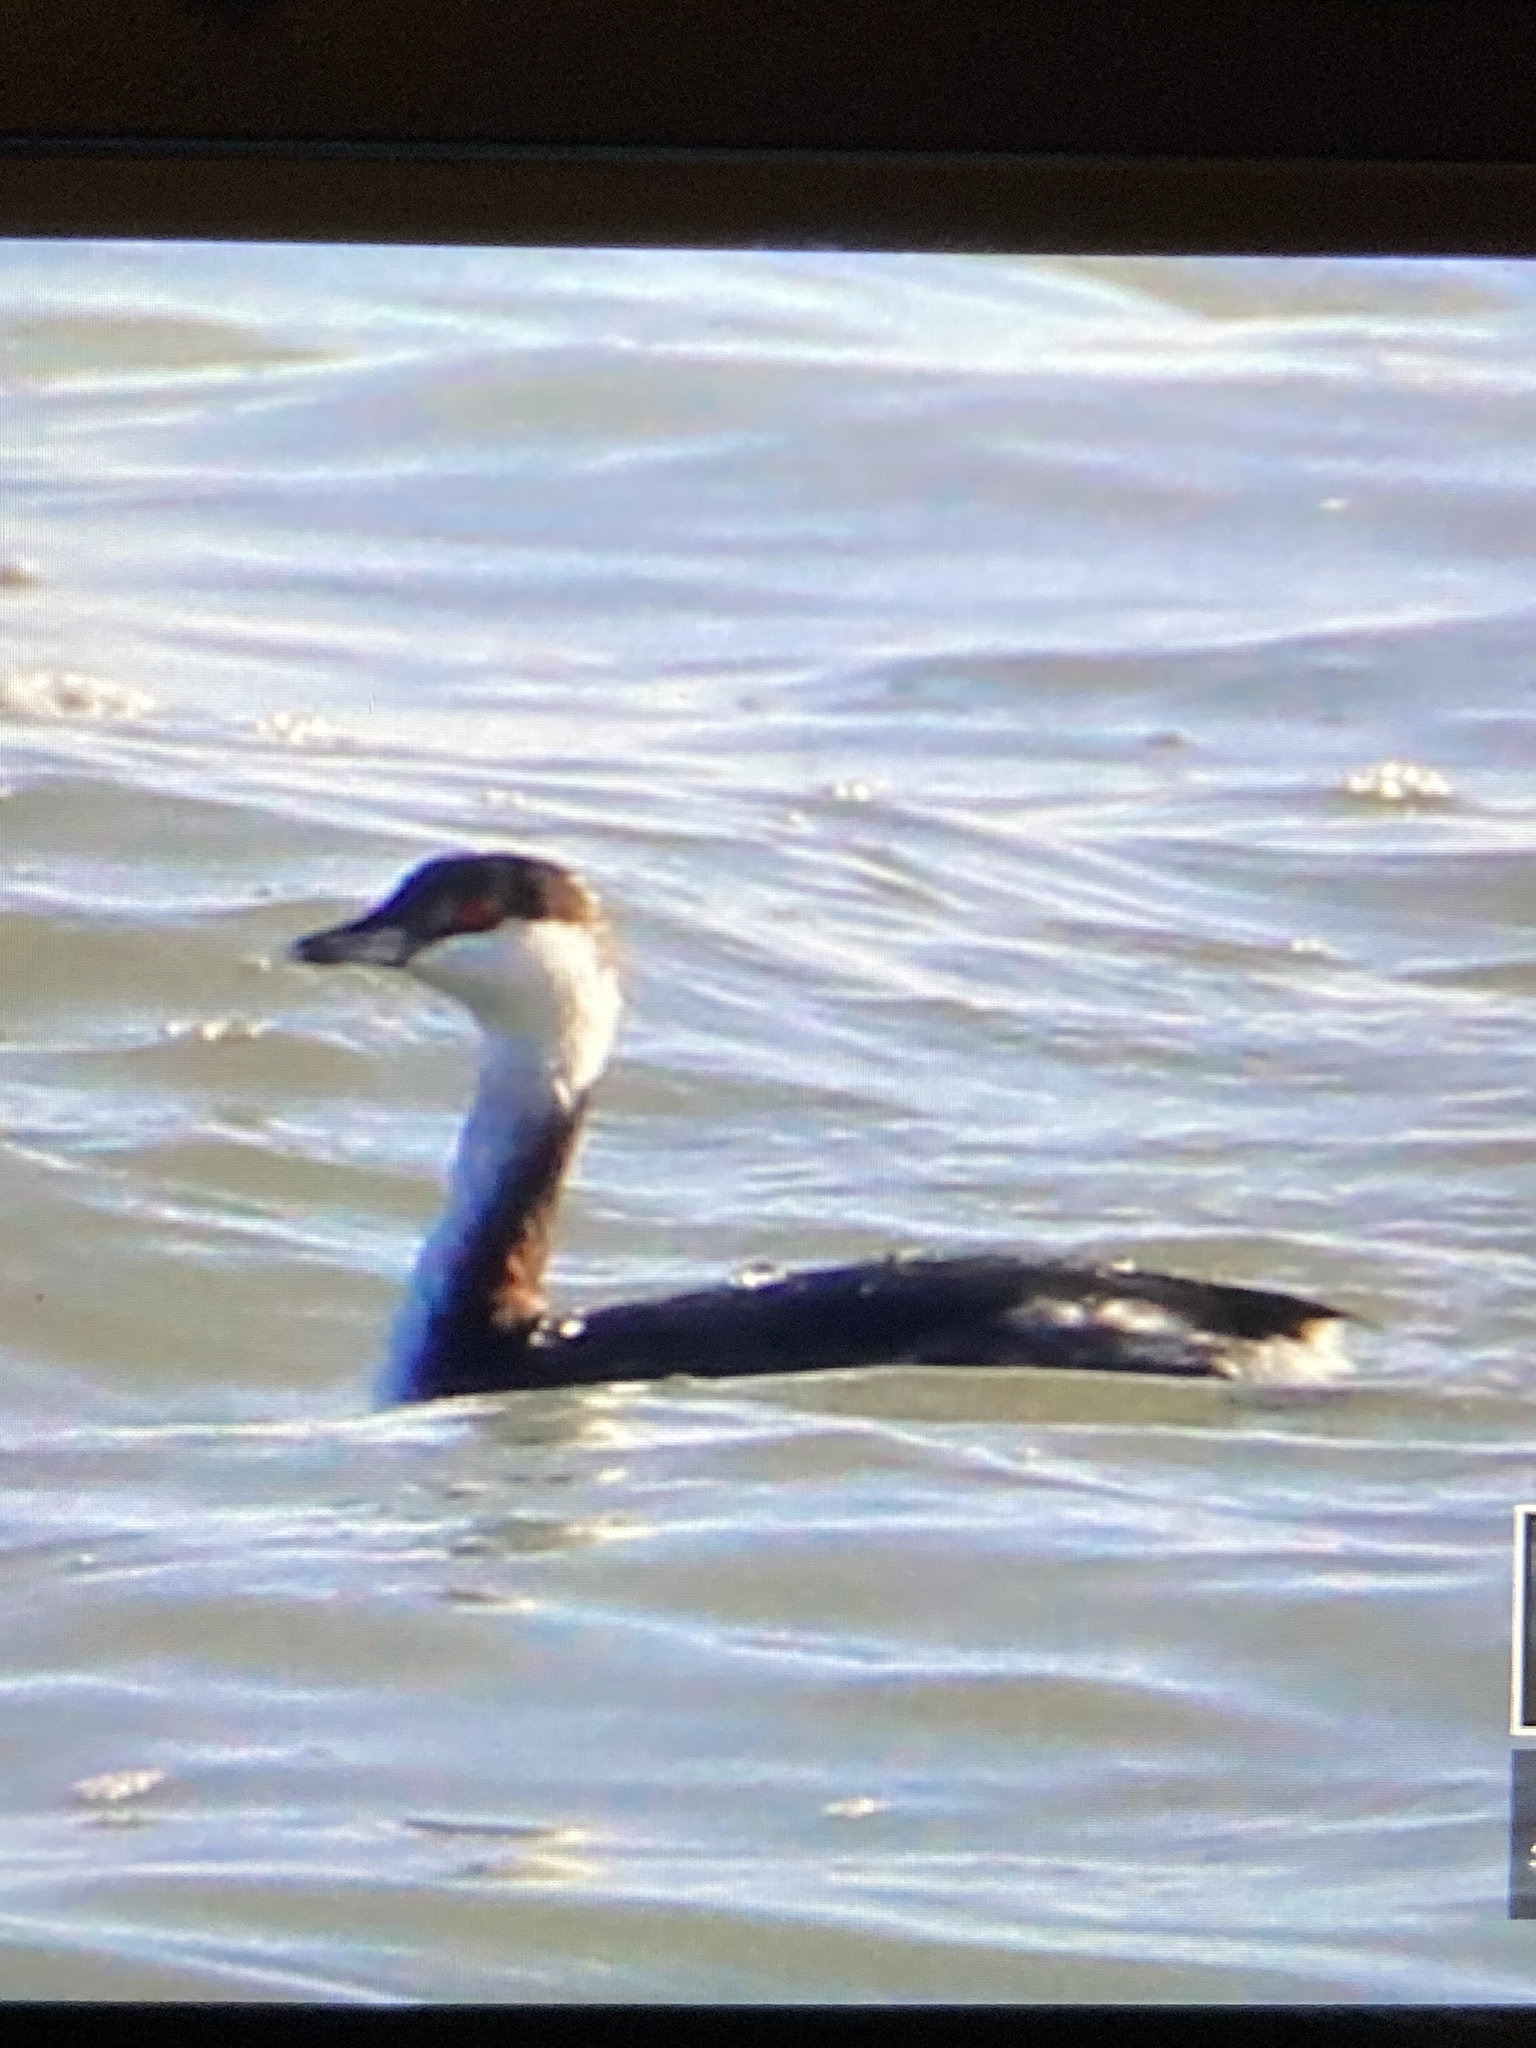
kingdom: Animalia
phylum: Chordata
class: Aves
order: Podicipediformes
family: Podicipedidae
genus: Podiceps
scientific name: Podiceps auritus
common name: Horned grebe
